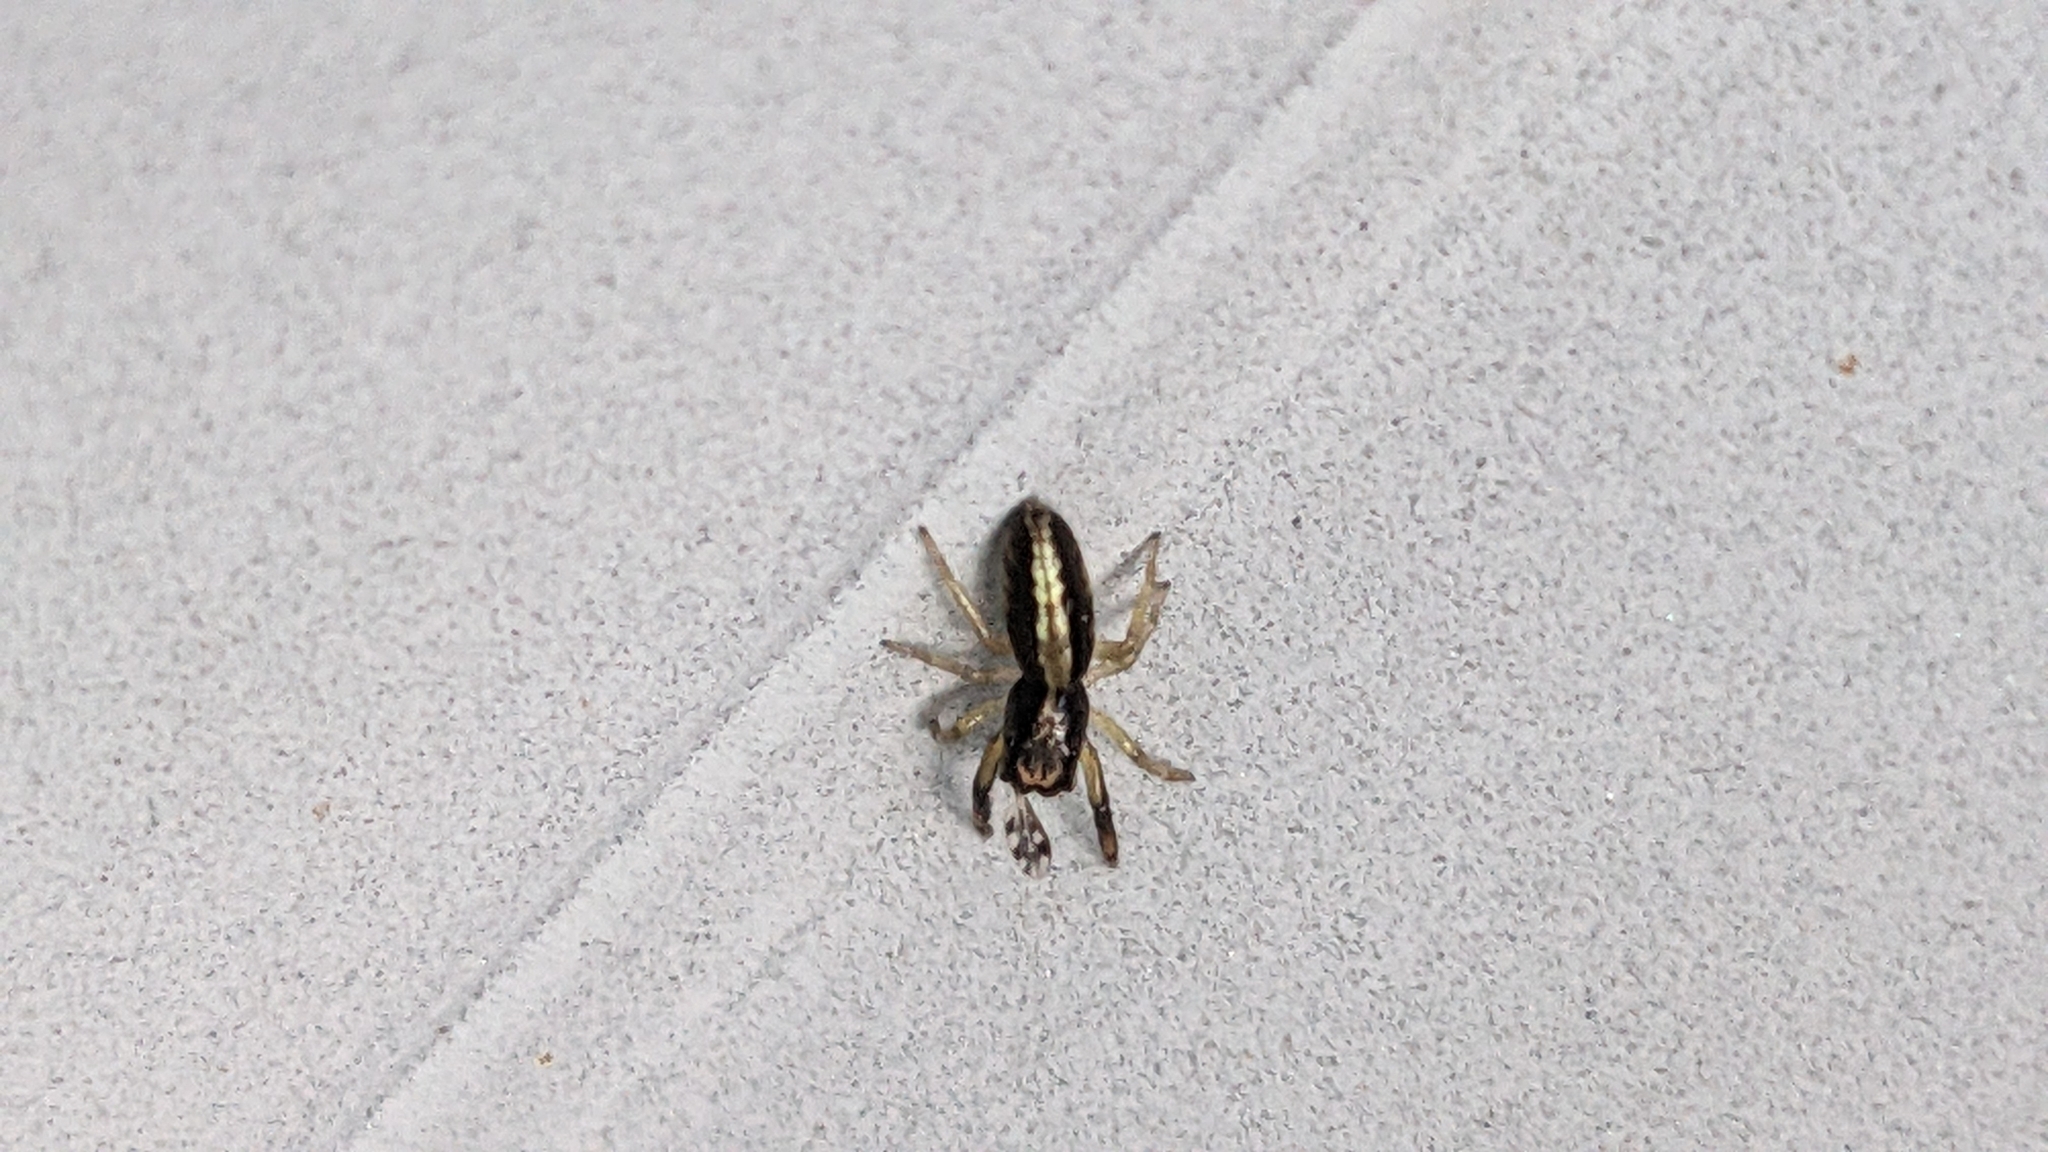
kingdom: Animalia
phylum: Arthropoda
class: Arachnida
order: Araneae
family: Salticidae
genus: Trite
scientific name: Trite planiceps
